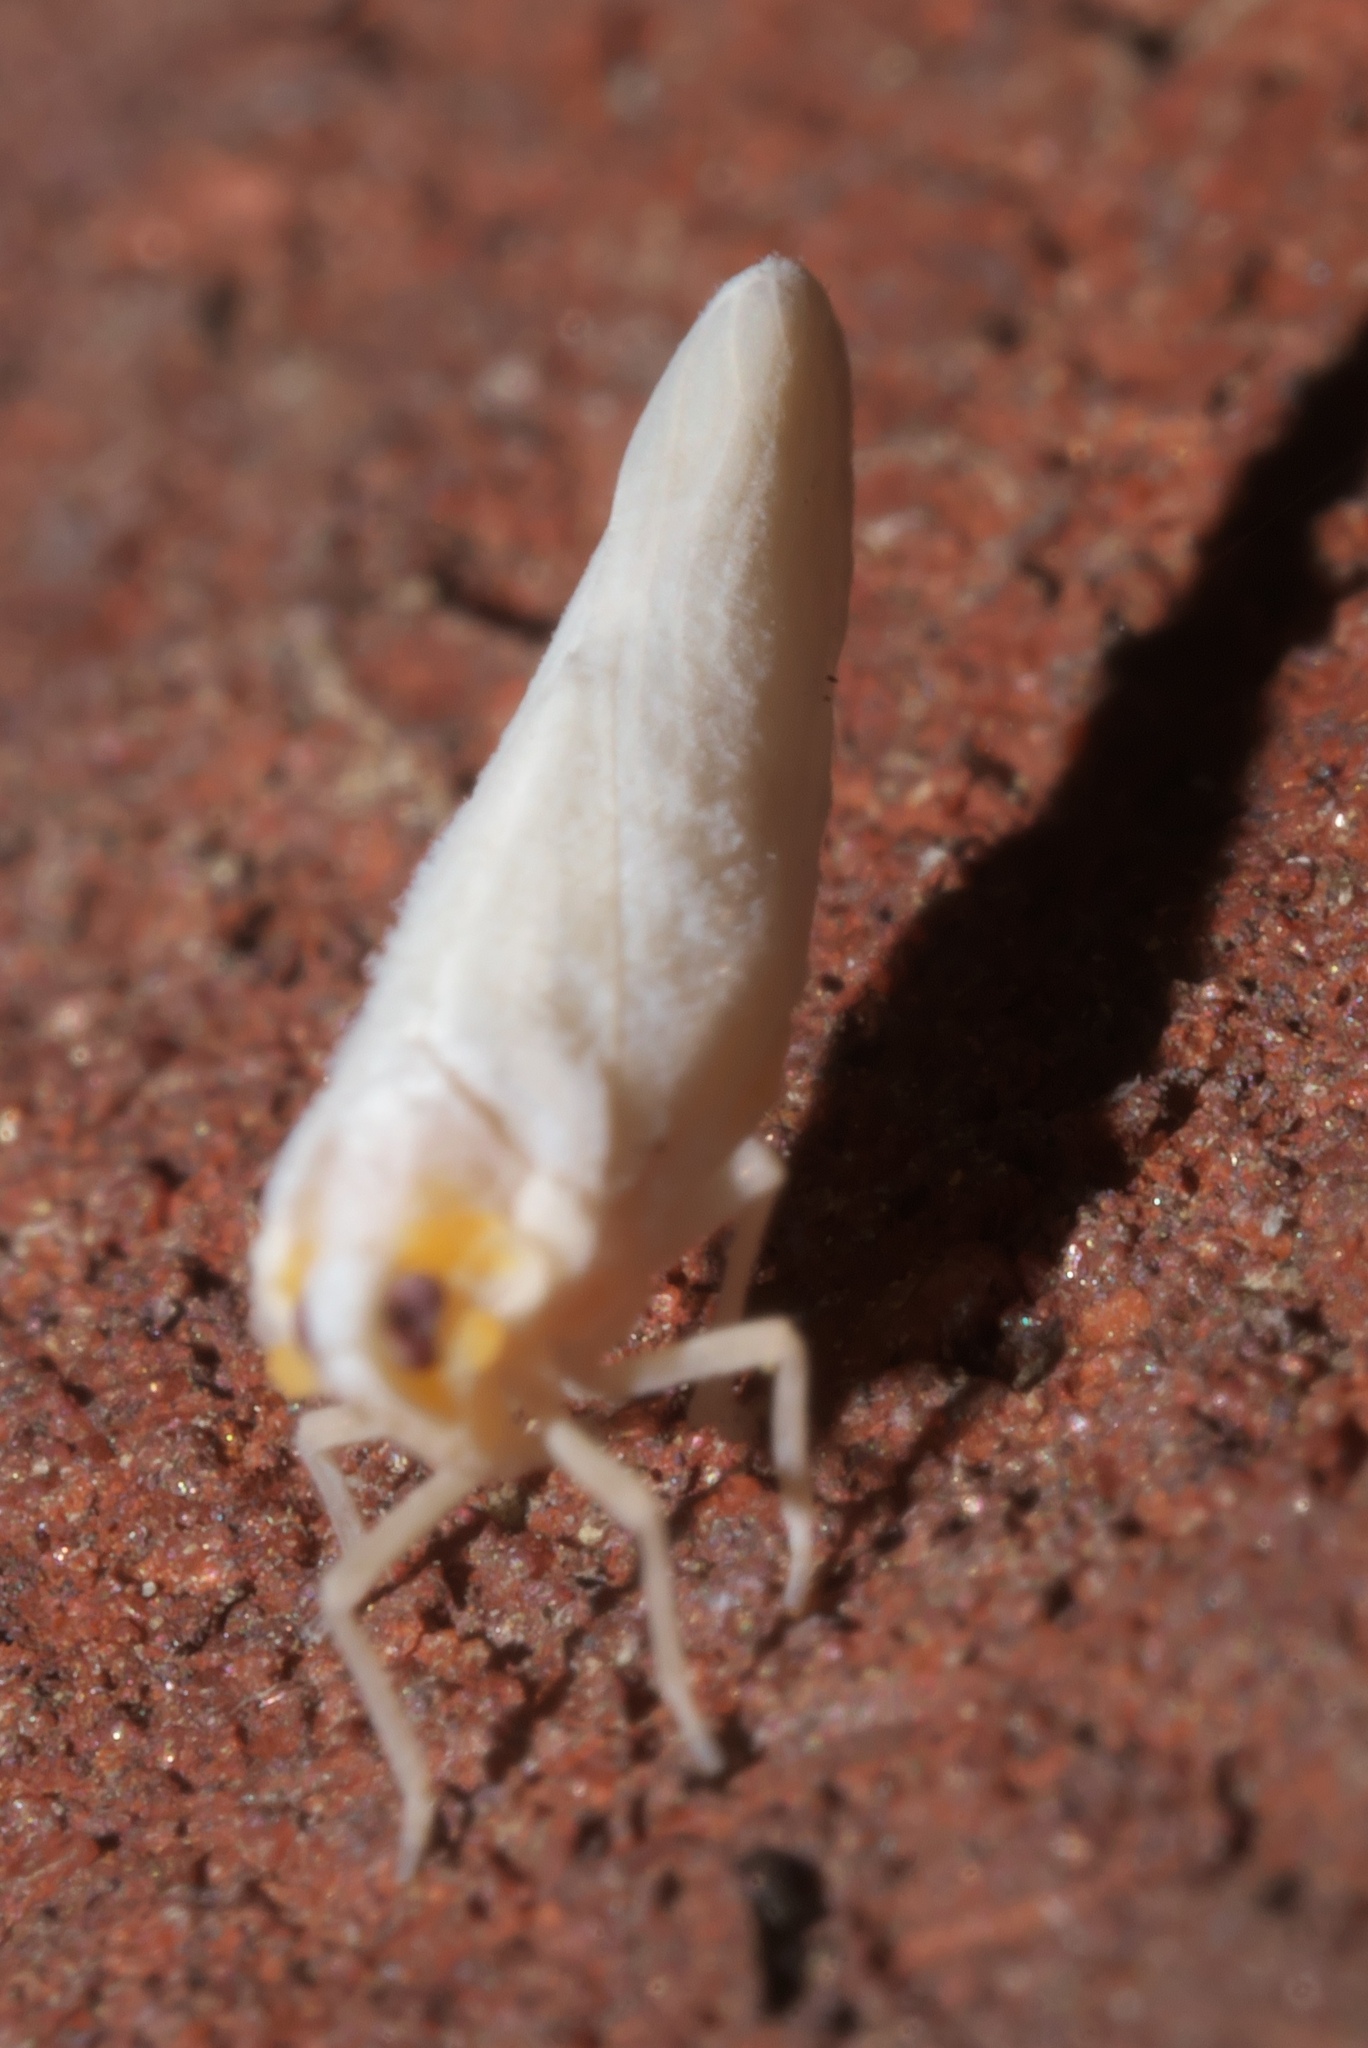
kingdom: Animalia
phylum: Arthropoda
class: Insecta
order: Hemiptera
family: Derbidae
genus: Neocenchrea
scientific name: Neocenchrea heidemanni
